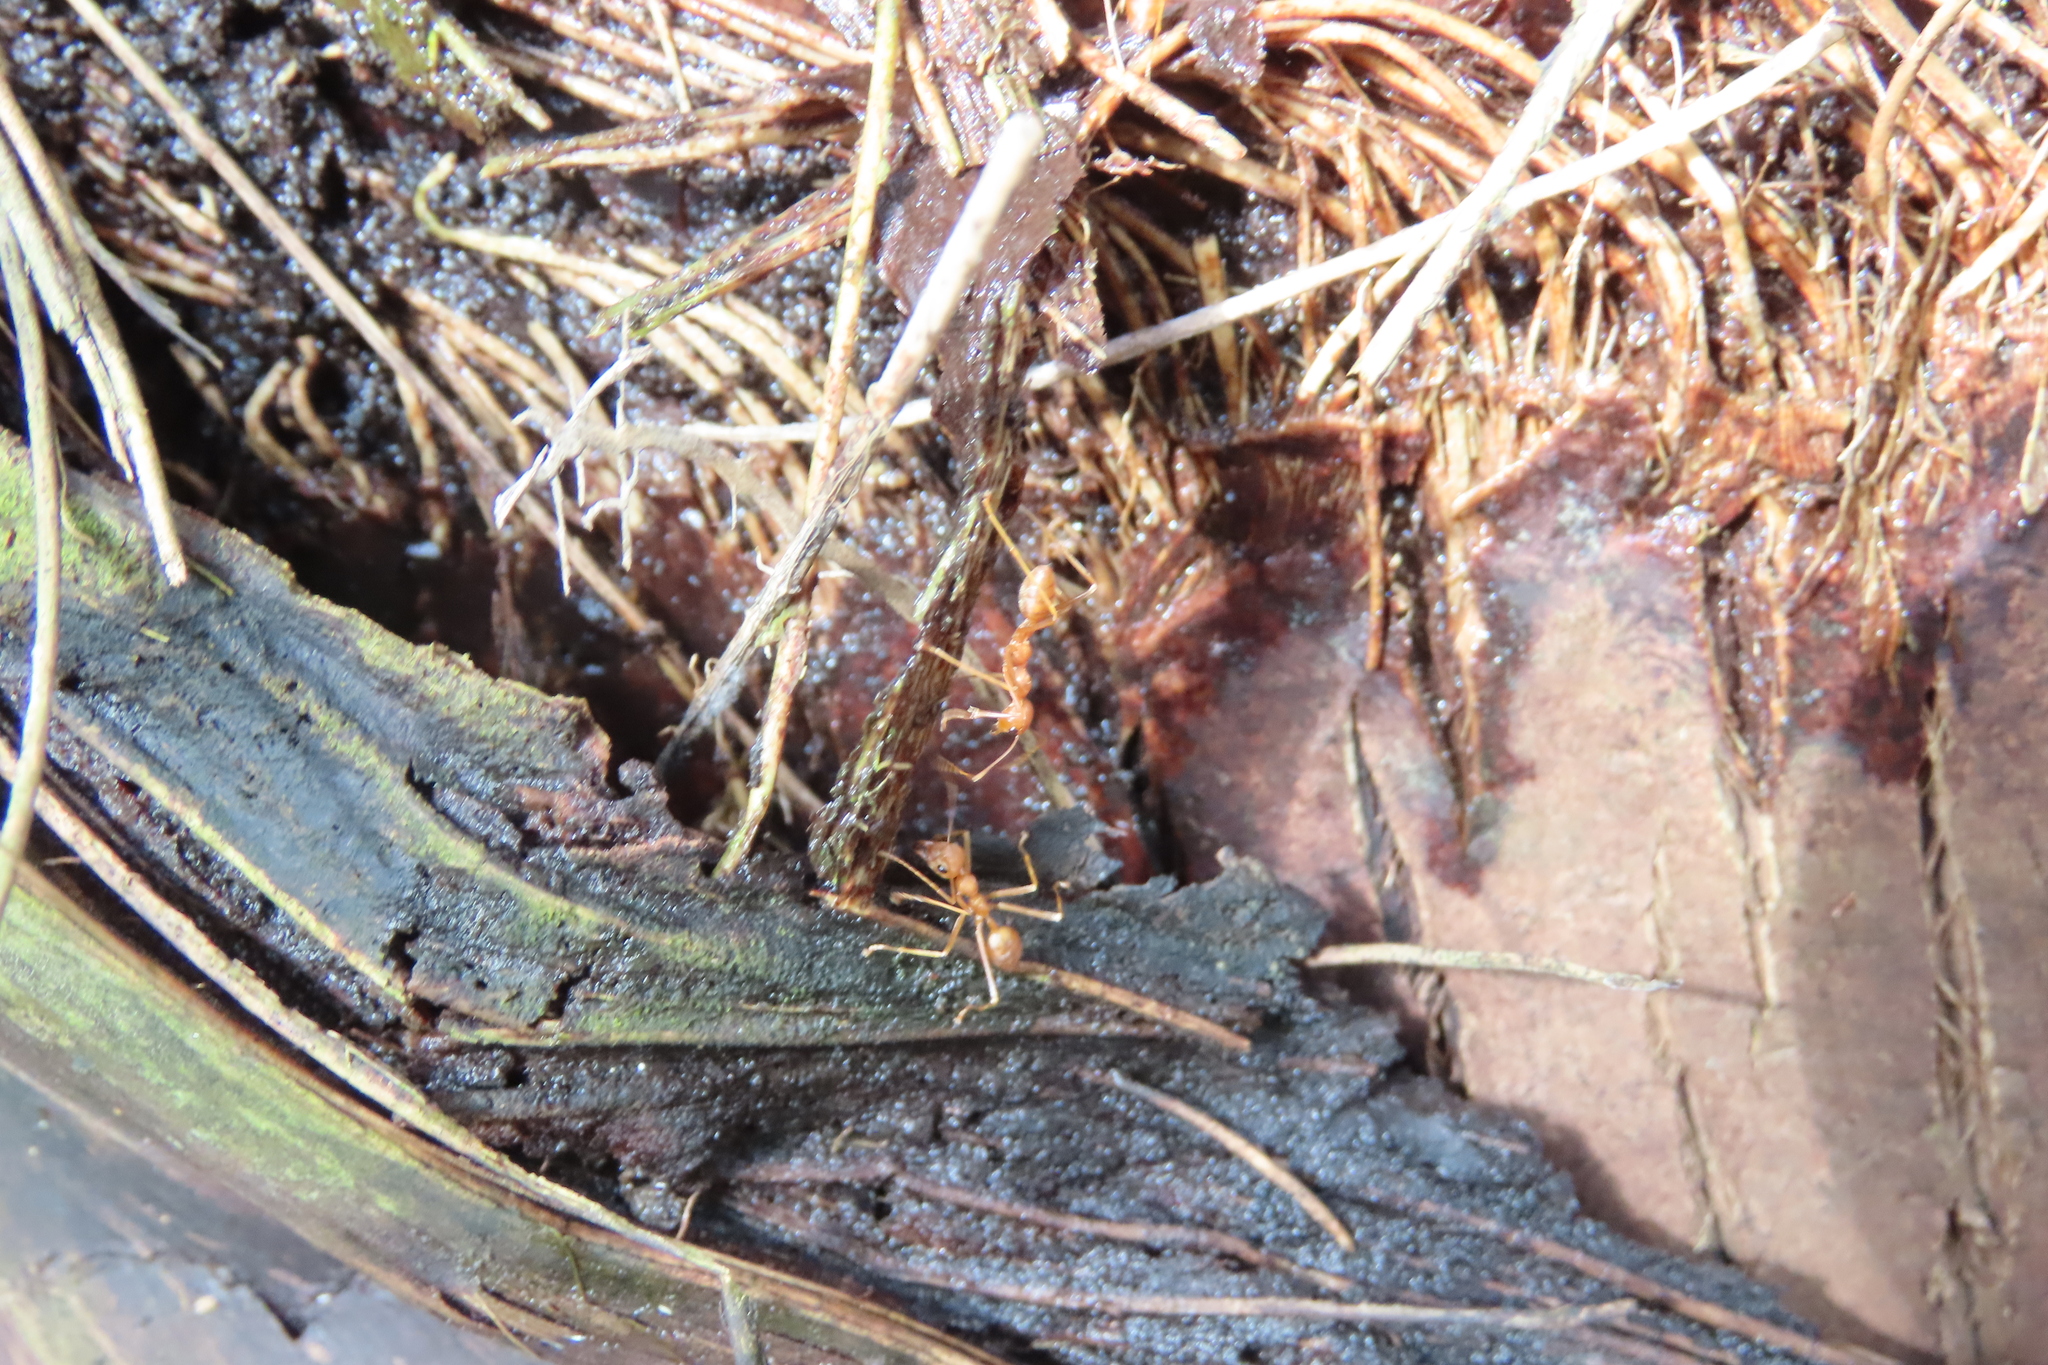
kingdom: Animalia
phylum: Arthropoda
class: Insecta
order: Hymenoptera
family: Formicidae
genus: Oecophylla
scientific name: Oecophylla smaragdina
